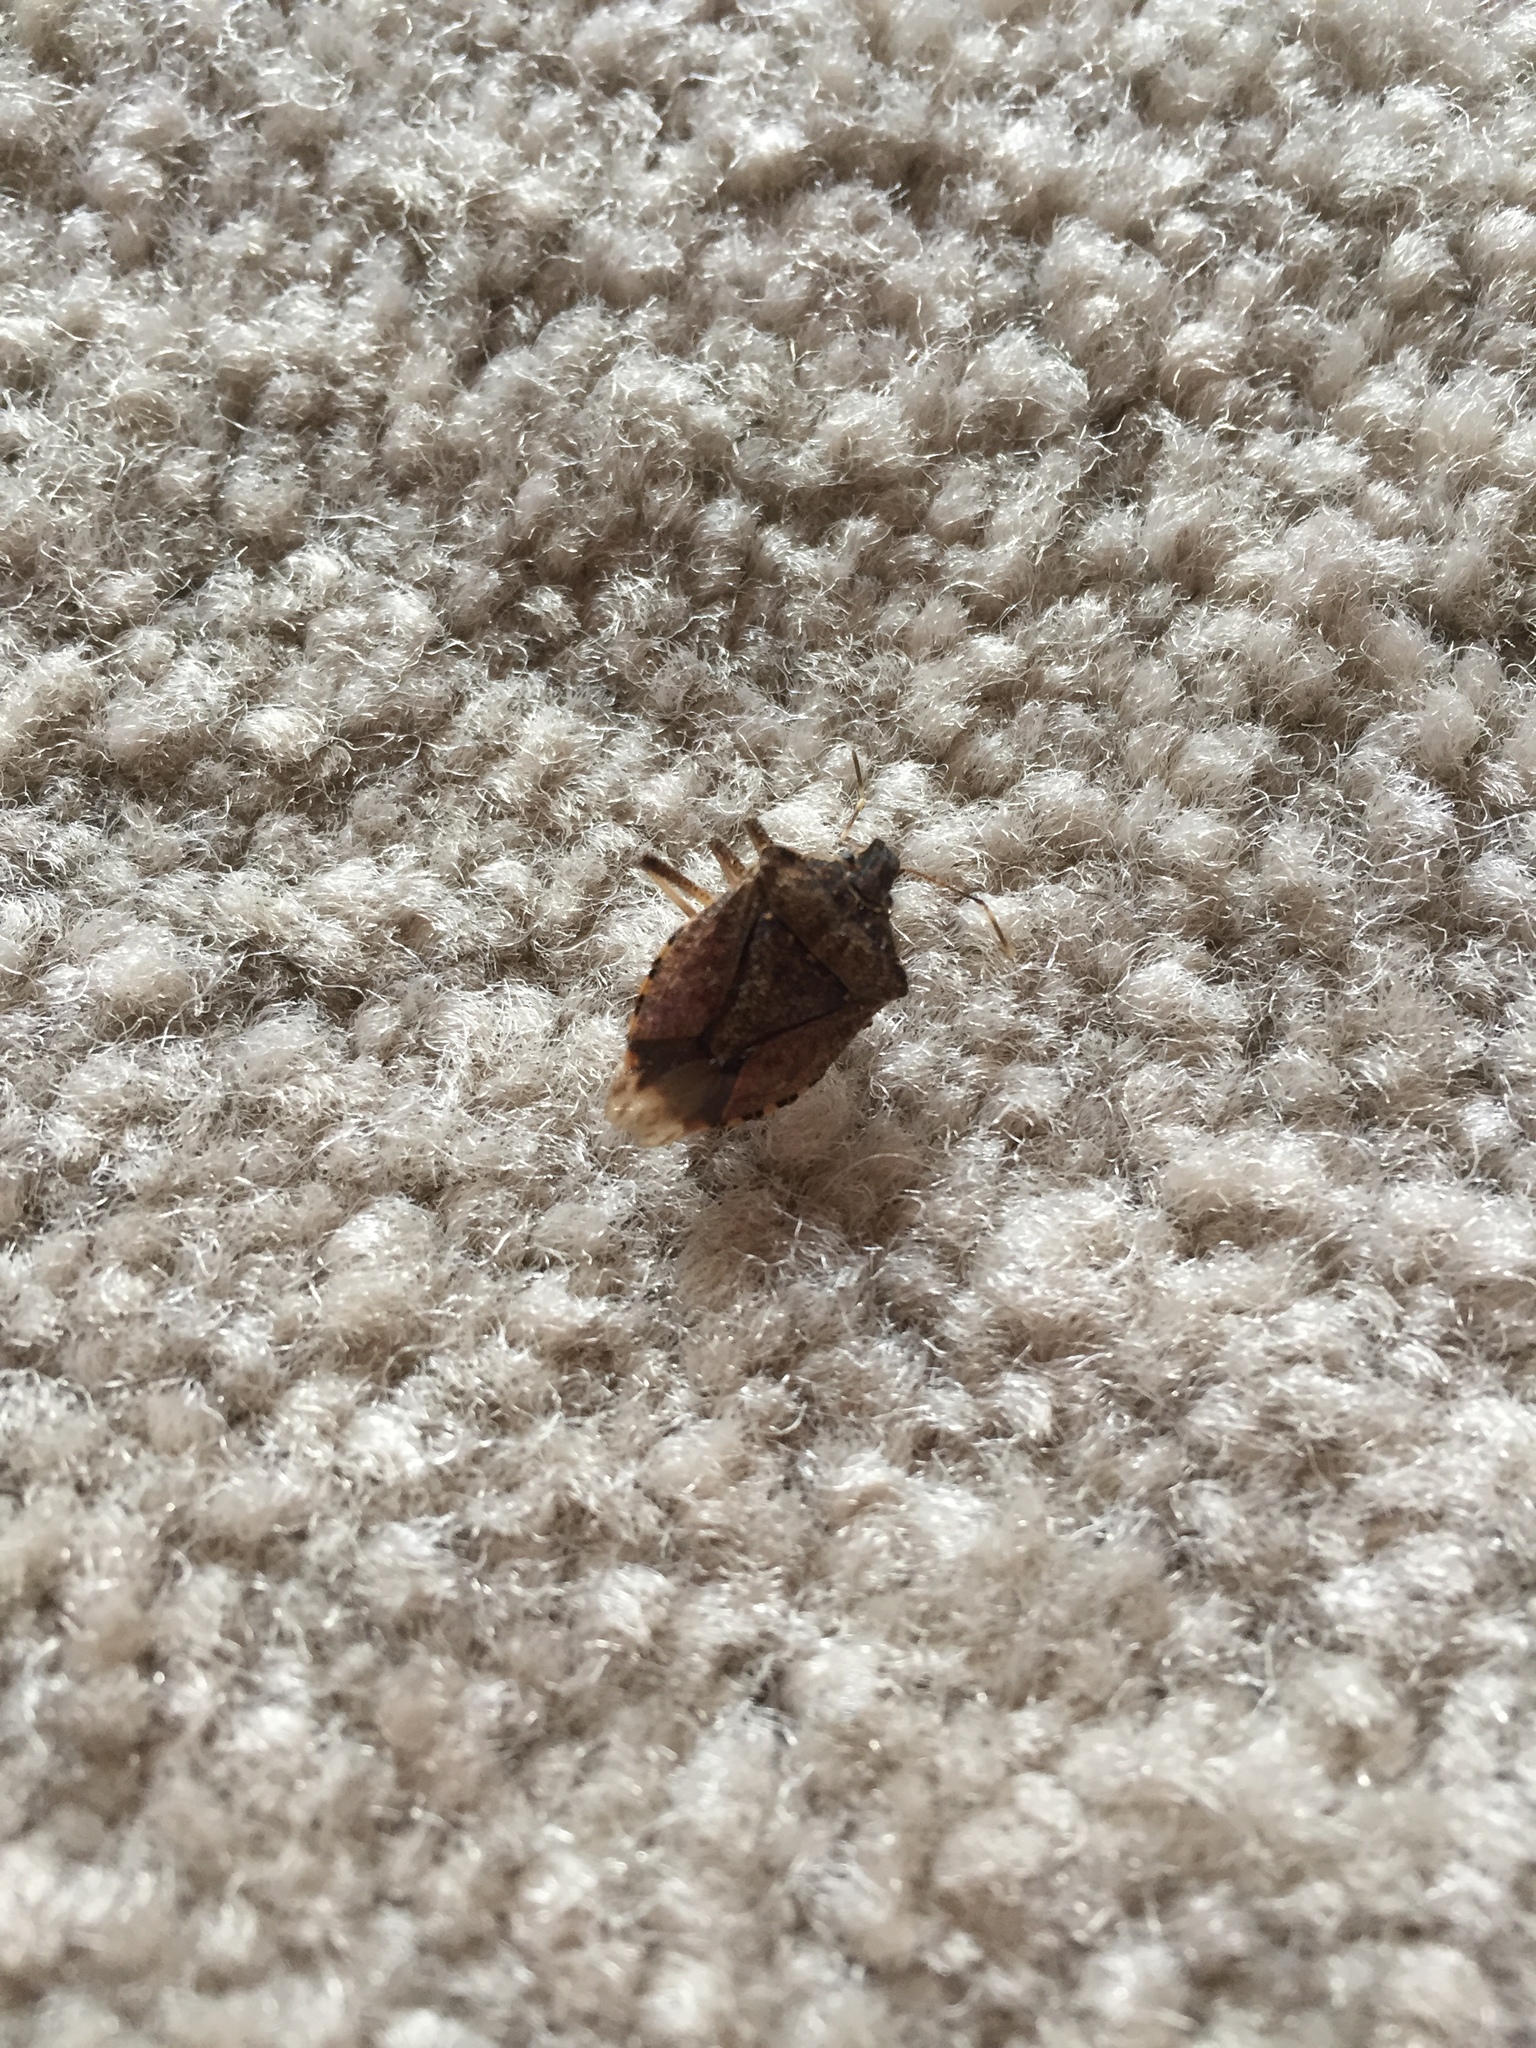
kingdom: Animalia
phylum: Arthropoda
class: Insecta
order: Hemiptera
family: Pentatomidae
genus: Halyomorpha
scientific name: Halyomorpha halys
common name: Brown marmorated stink bug
